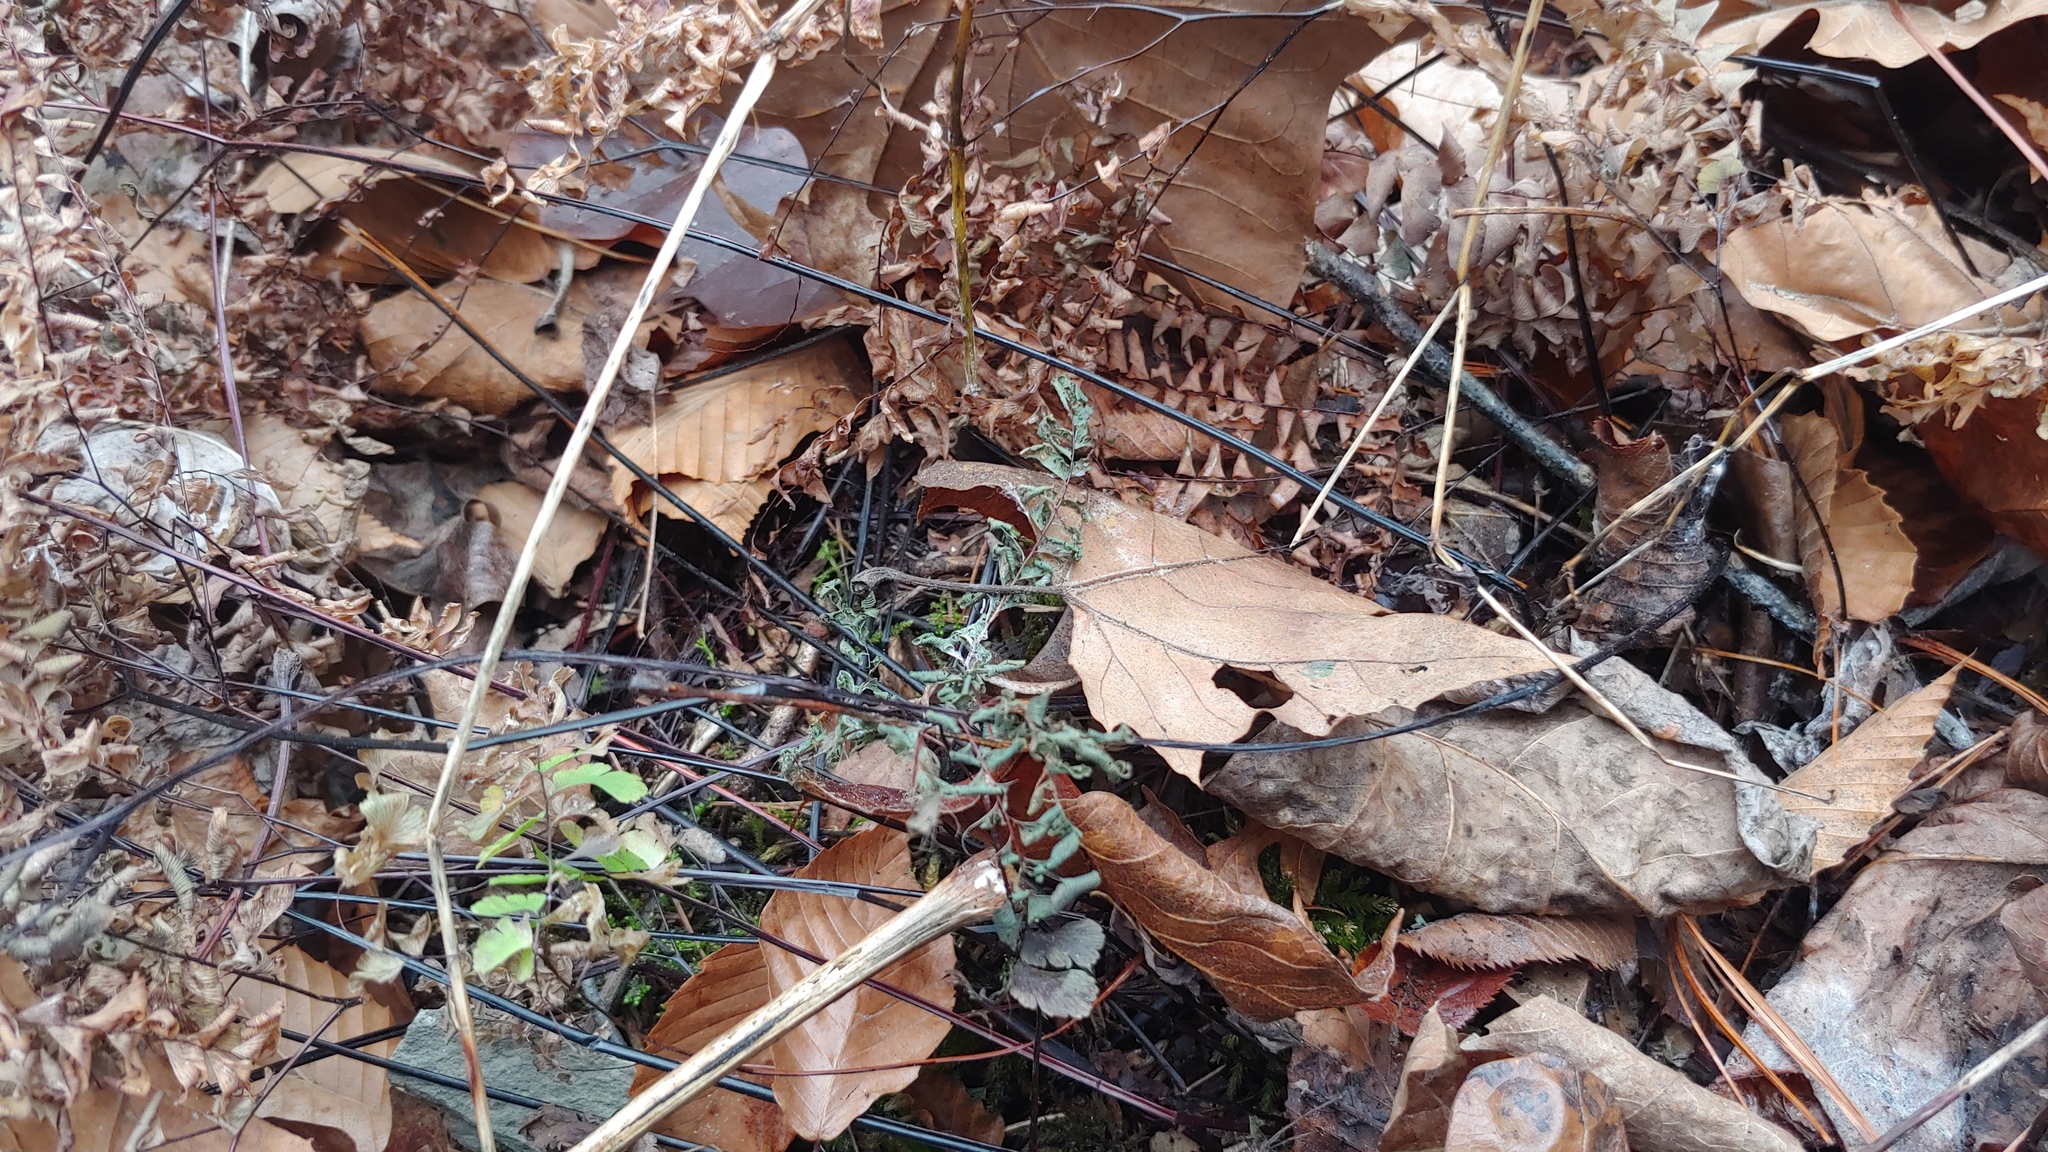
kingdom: Plantae
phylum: Tracheophyta
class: Polypodiopsida
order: Polypodiales
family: Pteridaceae
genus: Adiantum
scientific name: Adiantum pedatum
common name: Five-finger fern
